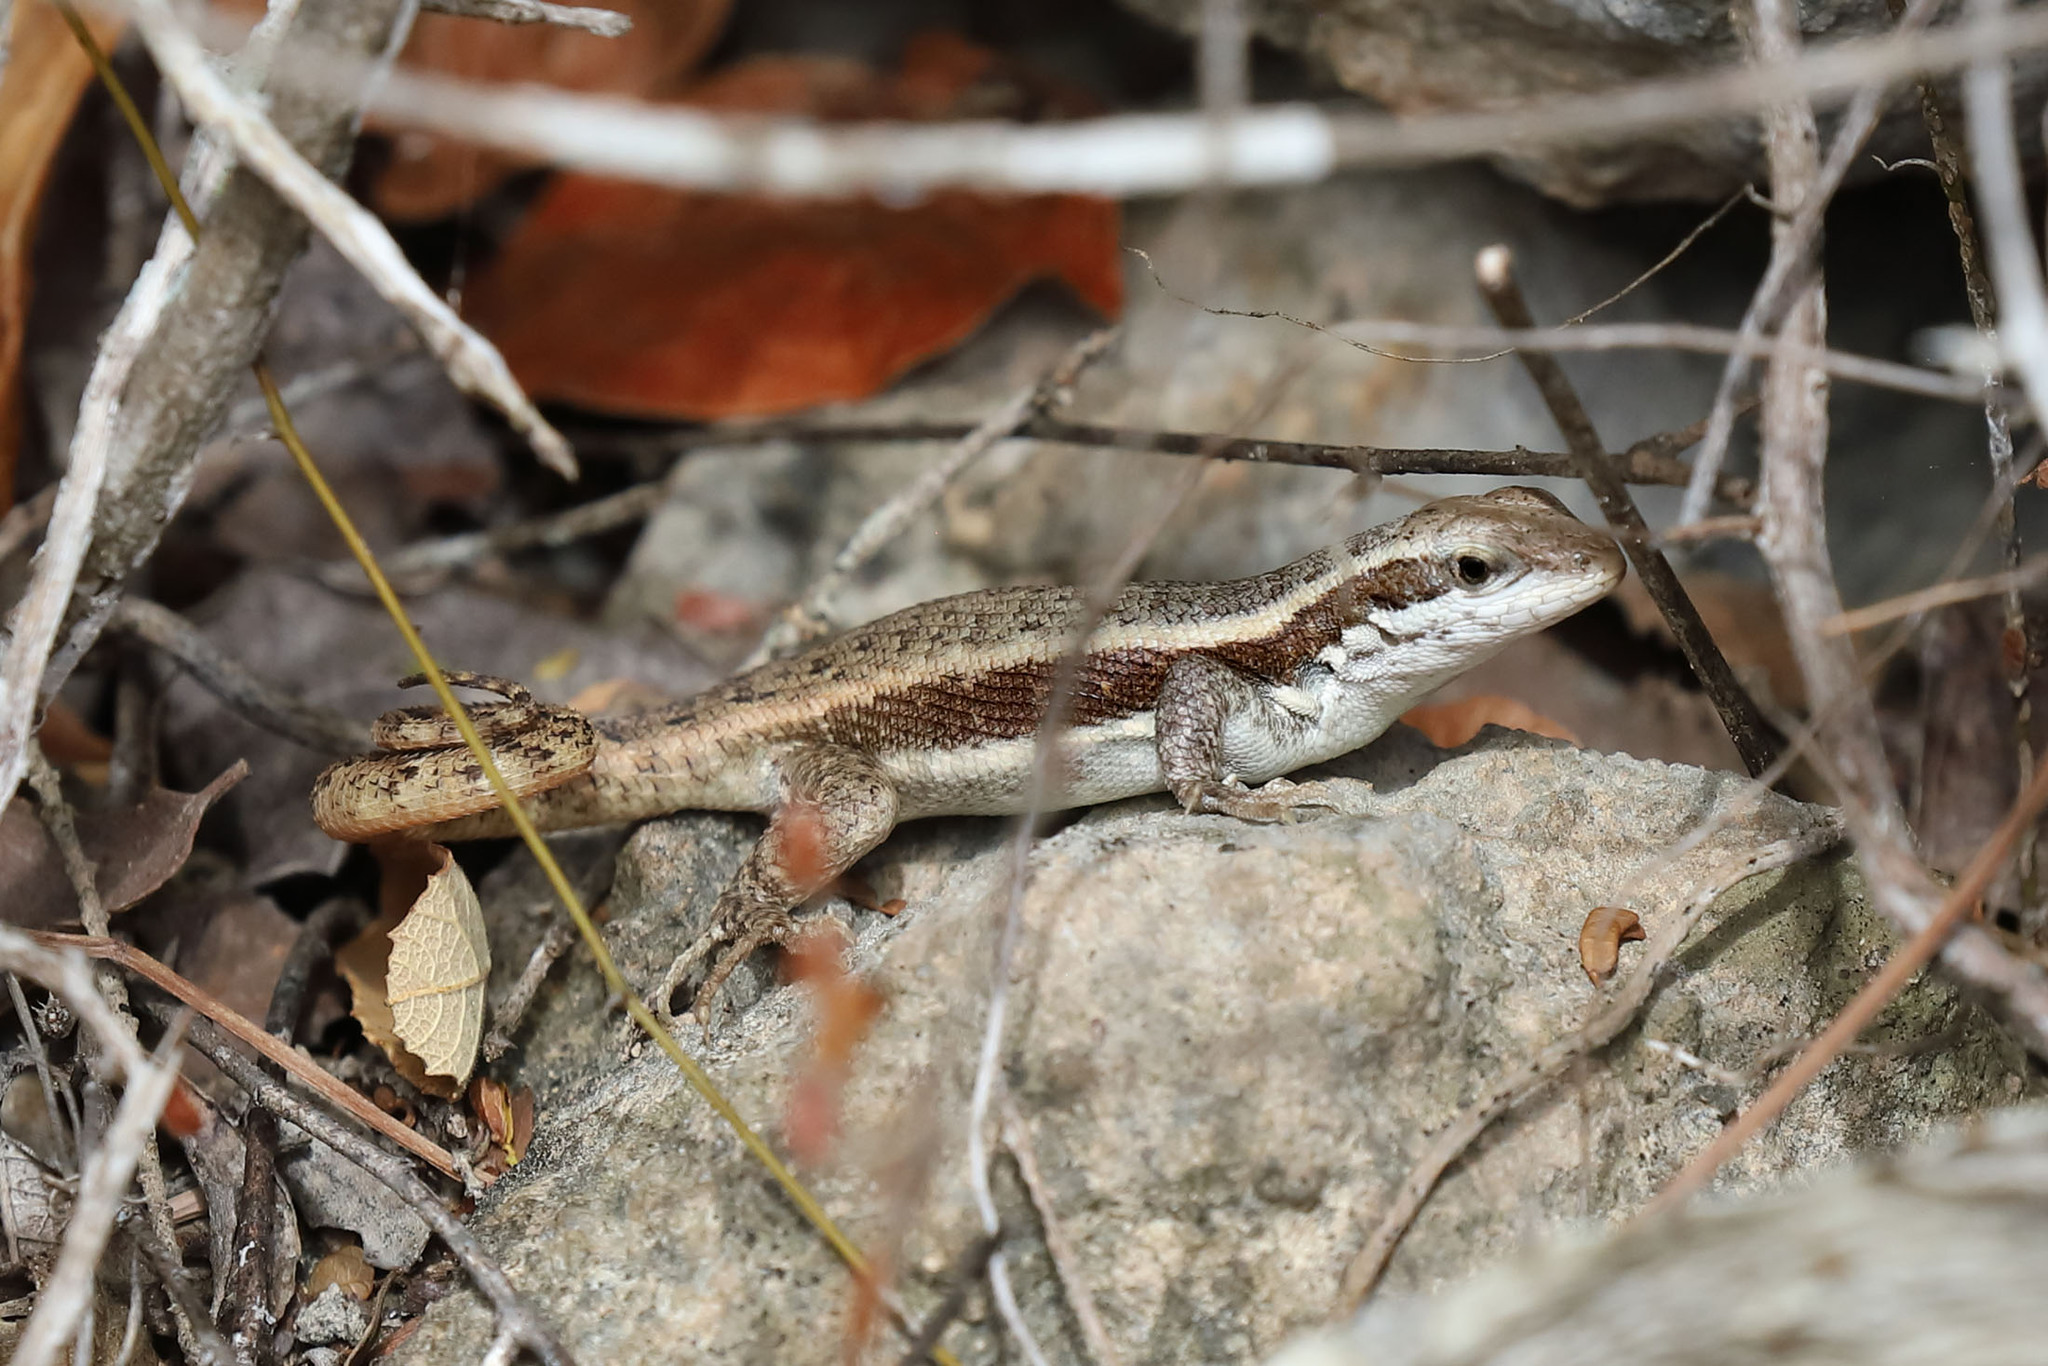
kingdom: Animalia
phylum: Chordata
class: Squamata
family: Leiocephalidae
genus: Leiocephalus
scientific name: Leiocephalus semilineatus
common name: Pale-bellied hispaniolan curlytail
